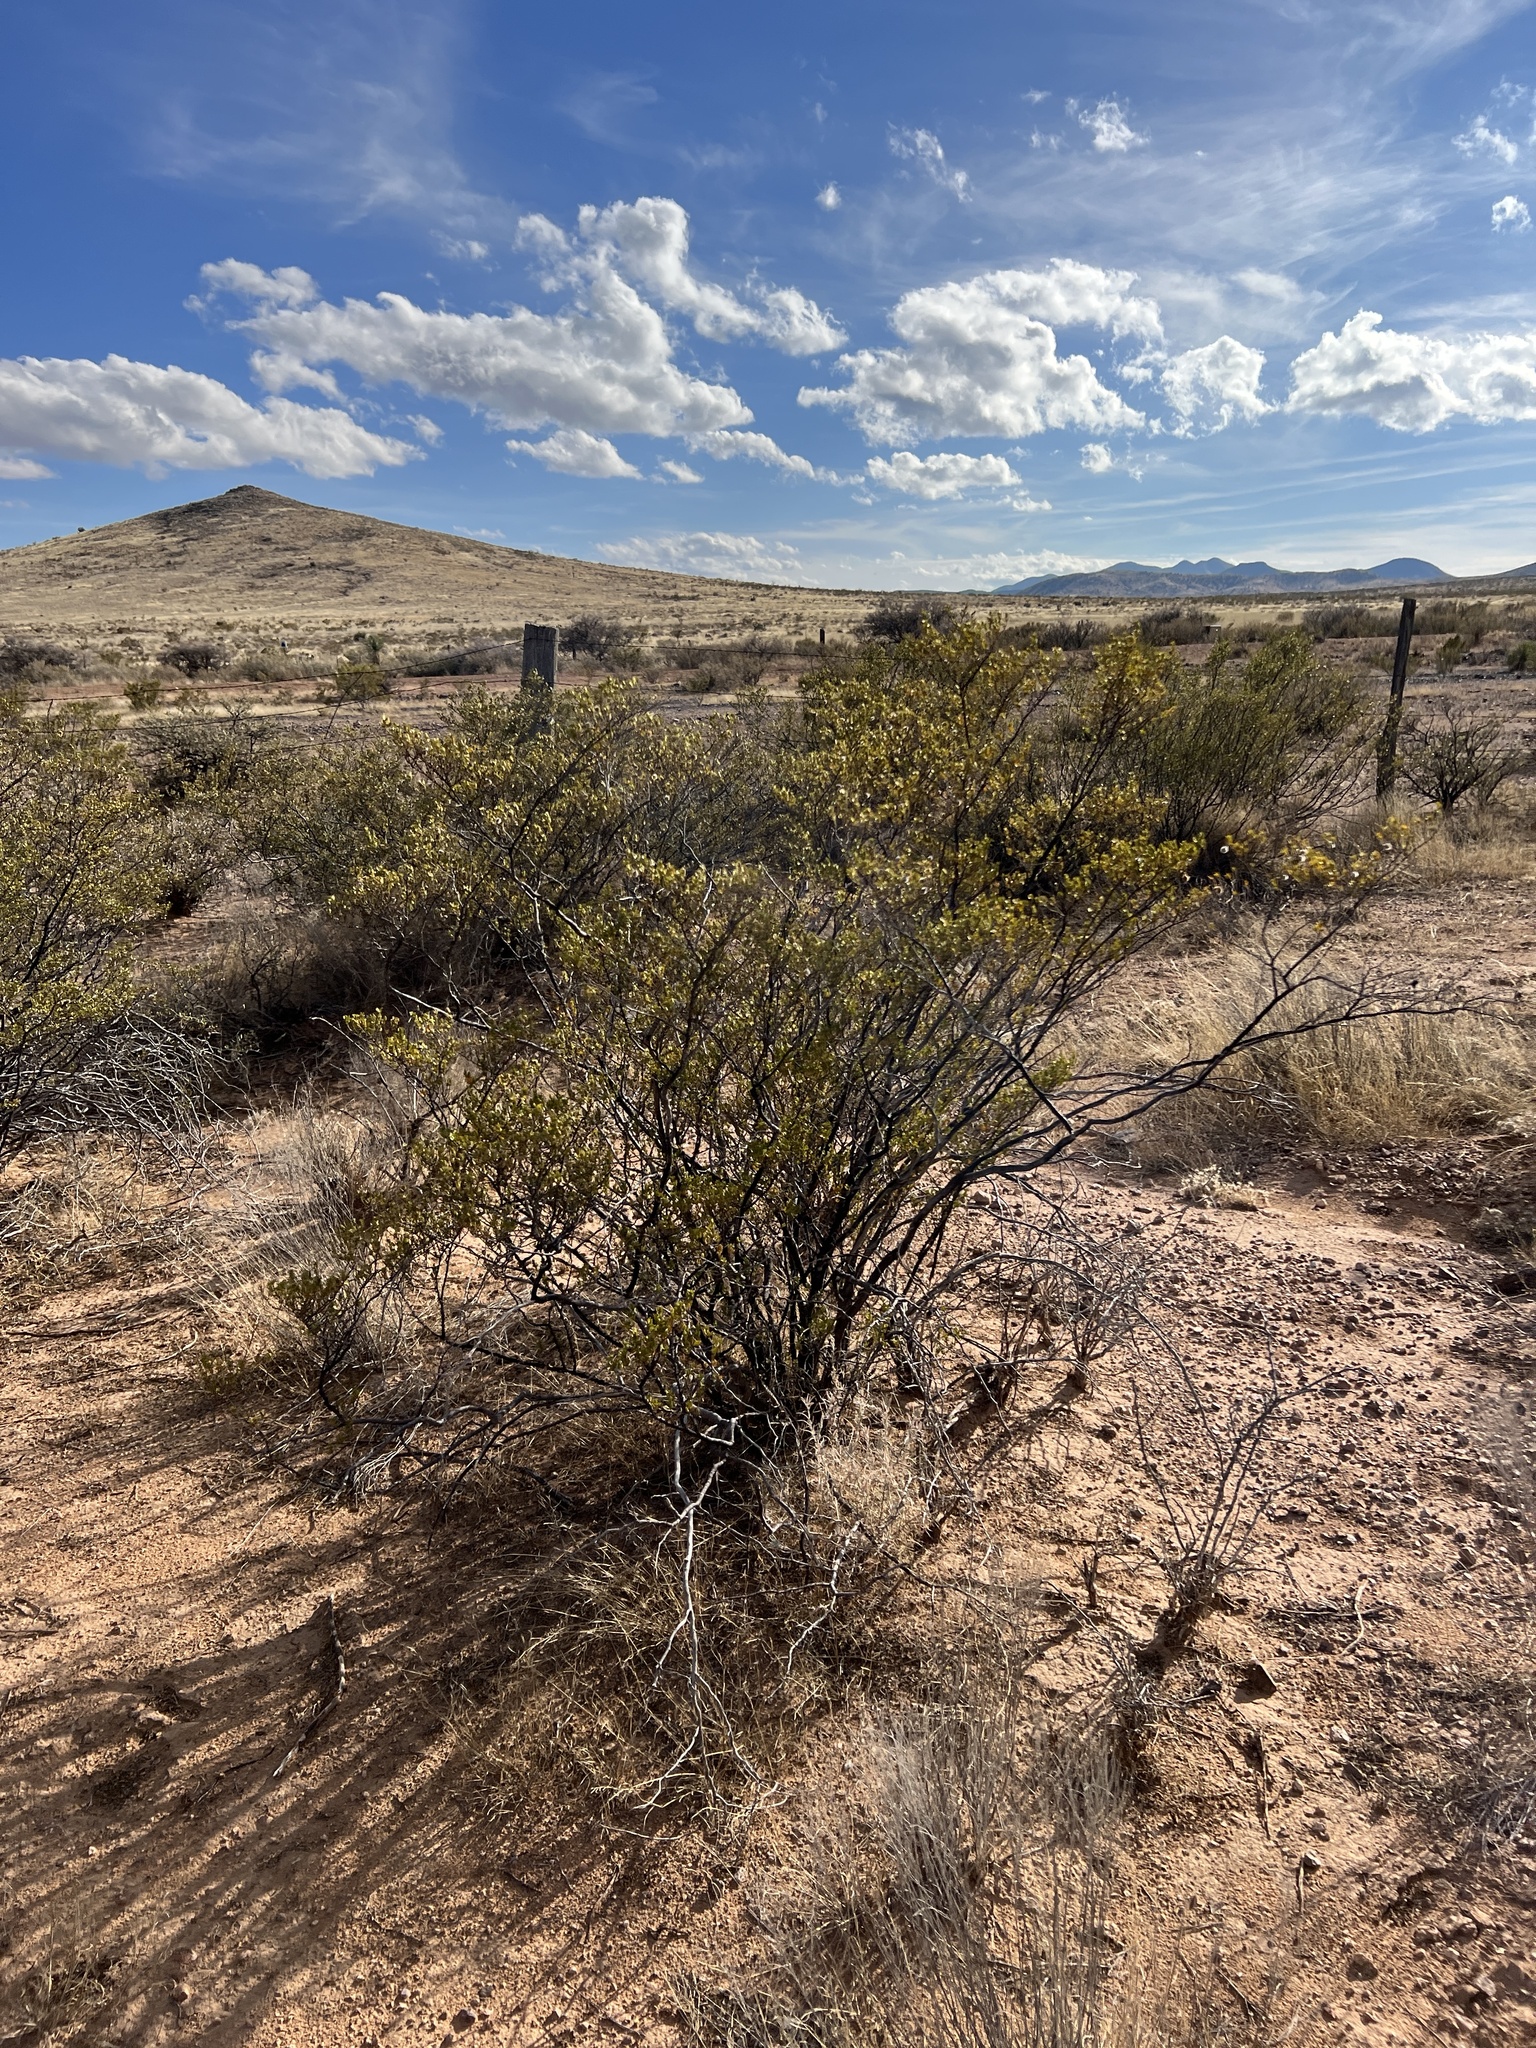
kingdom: Plantae
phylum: Tracheophyta
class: Magnoliopsida
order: Zygophyllales
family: Zygophyllaceae
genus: Larrea
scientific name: Larrea tridentata
